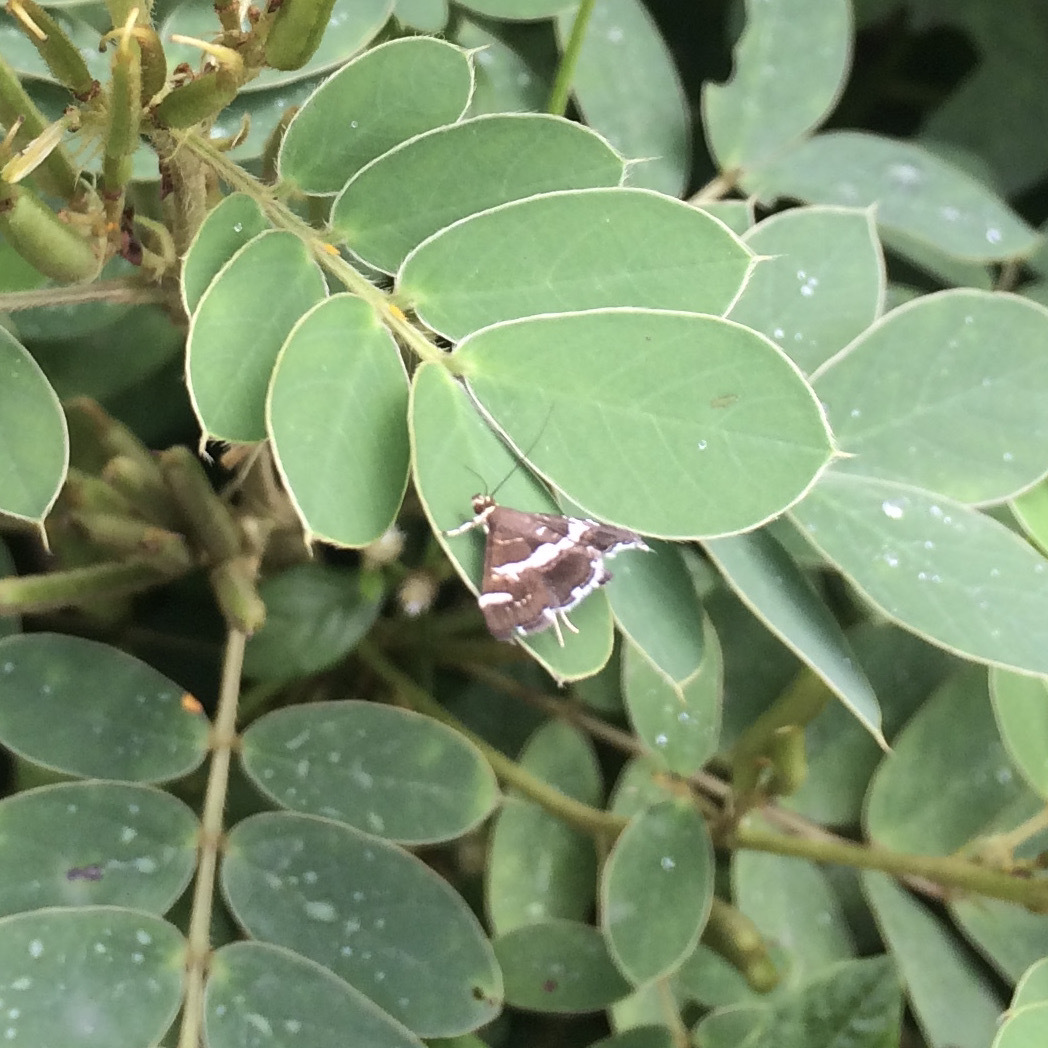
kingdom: Animalia
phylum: Arthropoda
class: Insecta
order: Lepidoptera
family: Crambidae
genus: Spoladea
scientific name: Spoladea recurvalis
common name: Beet webworm moth
